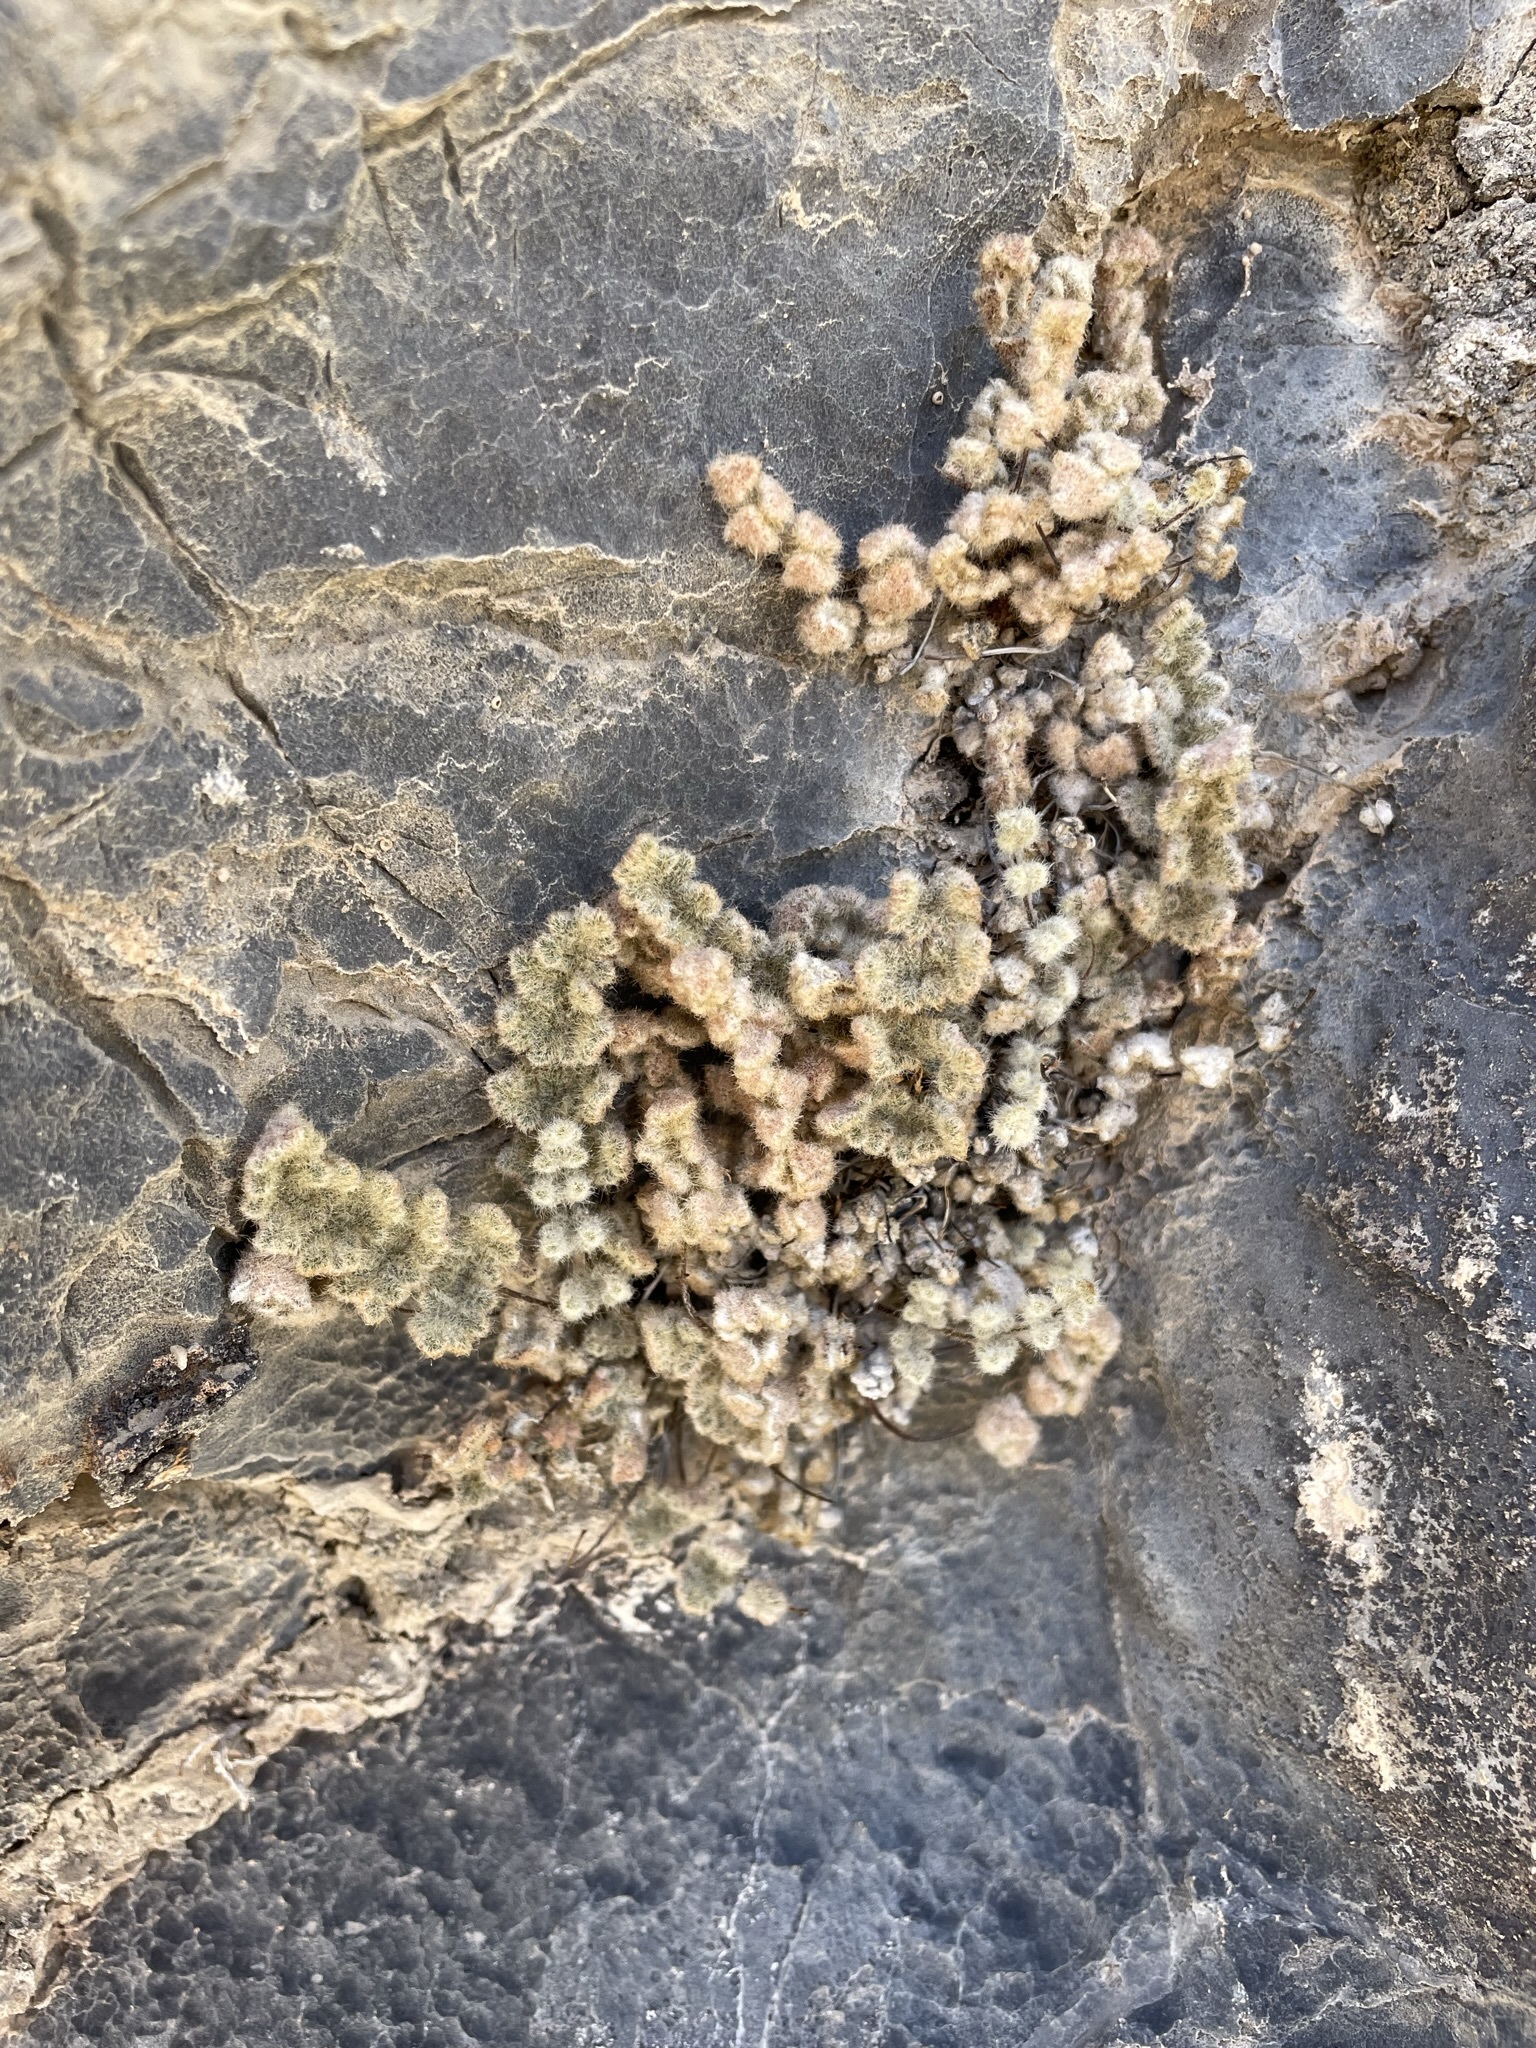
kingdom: Plantae
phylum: Tracheophyta
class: Polypodiopsida
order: Polypodiales
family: Pteridaceae
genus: Myriopteris
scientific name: Myriopteris parryi
